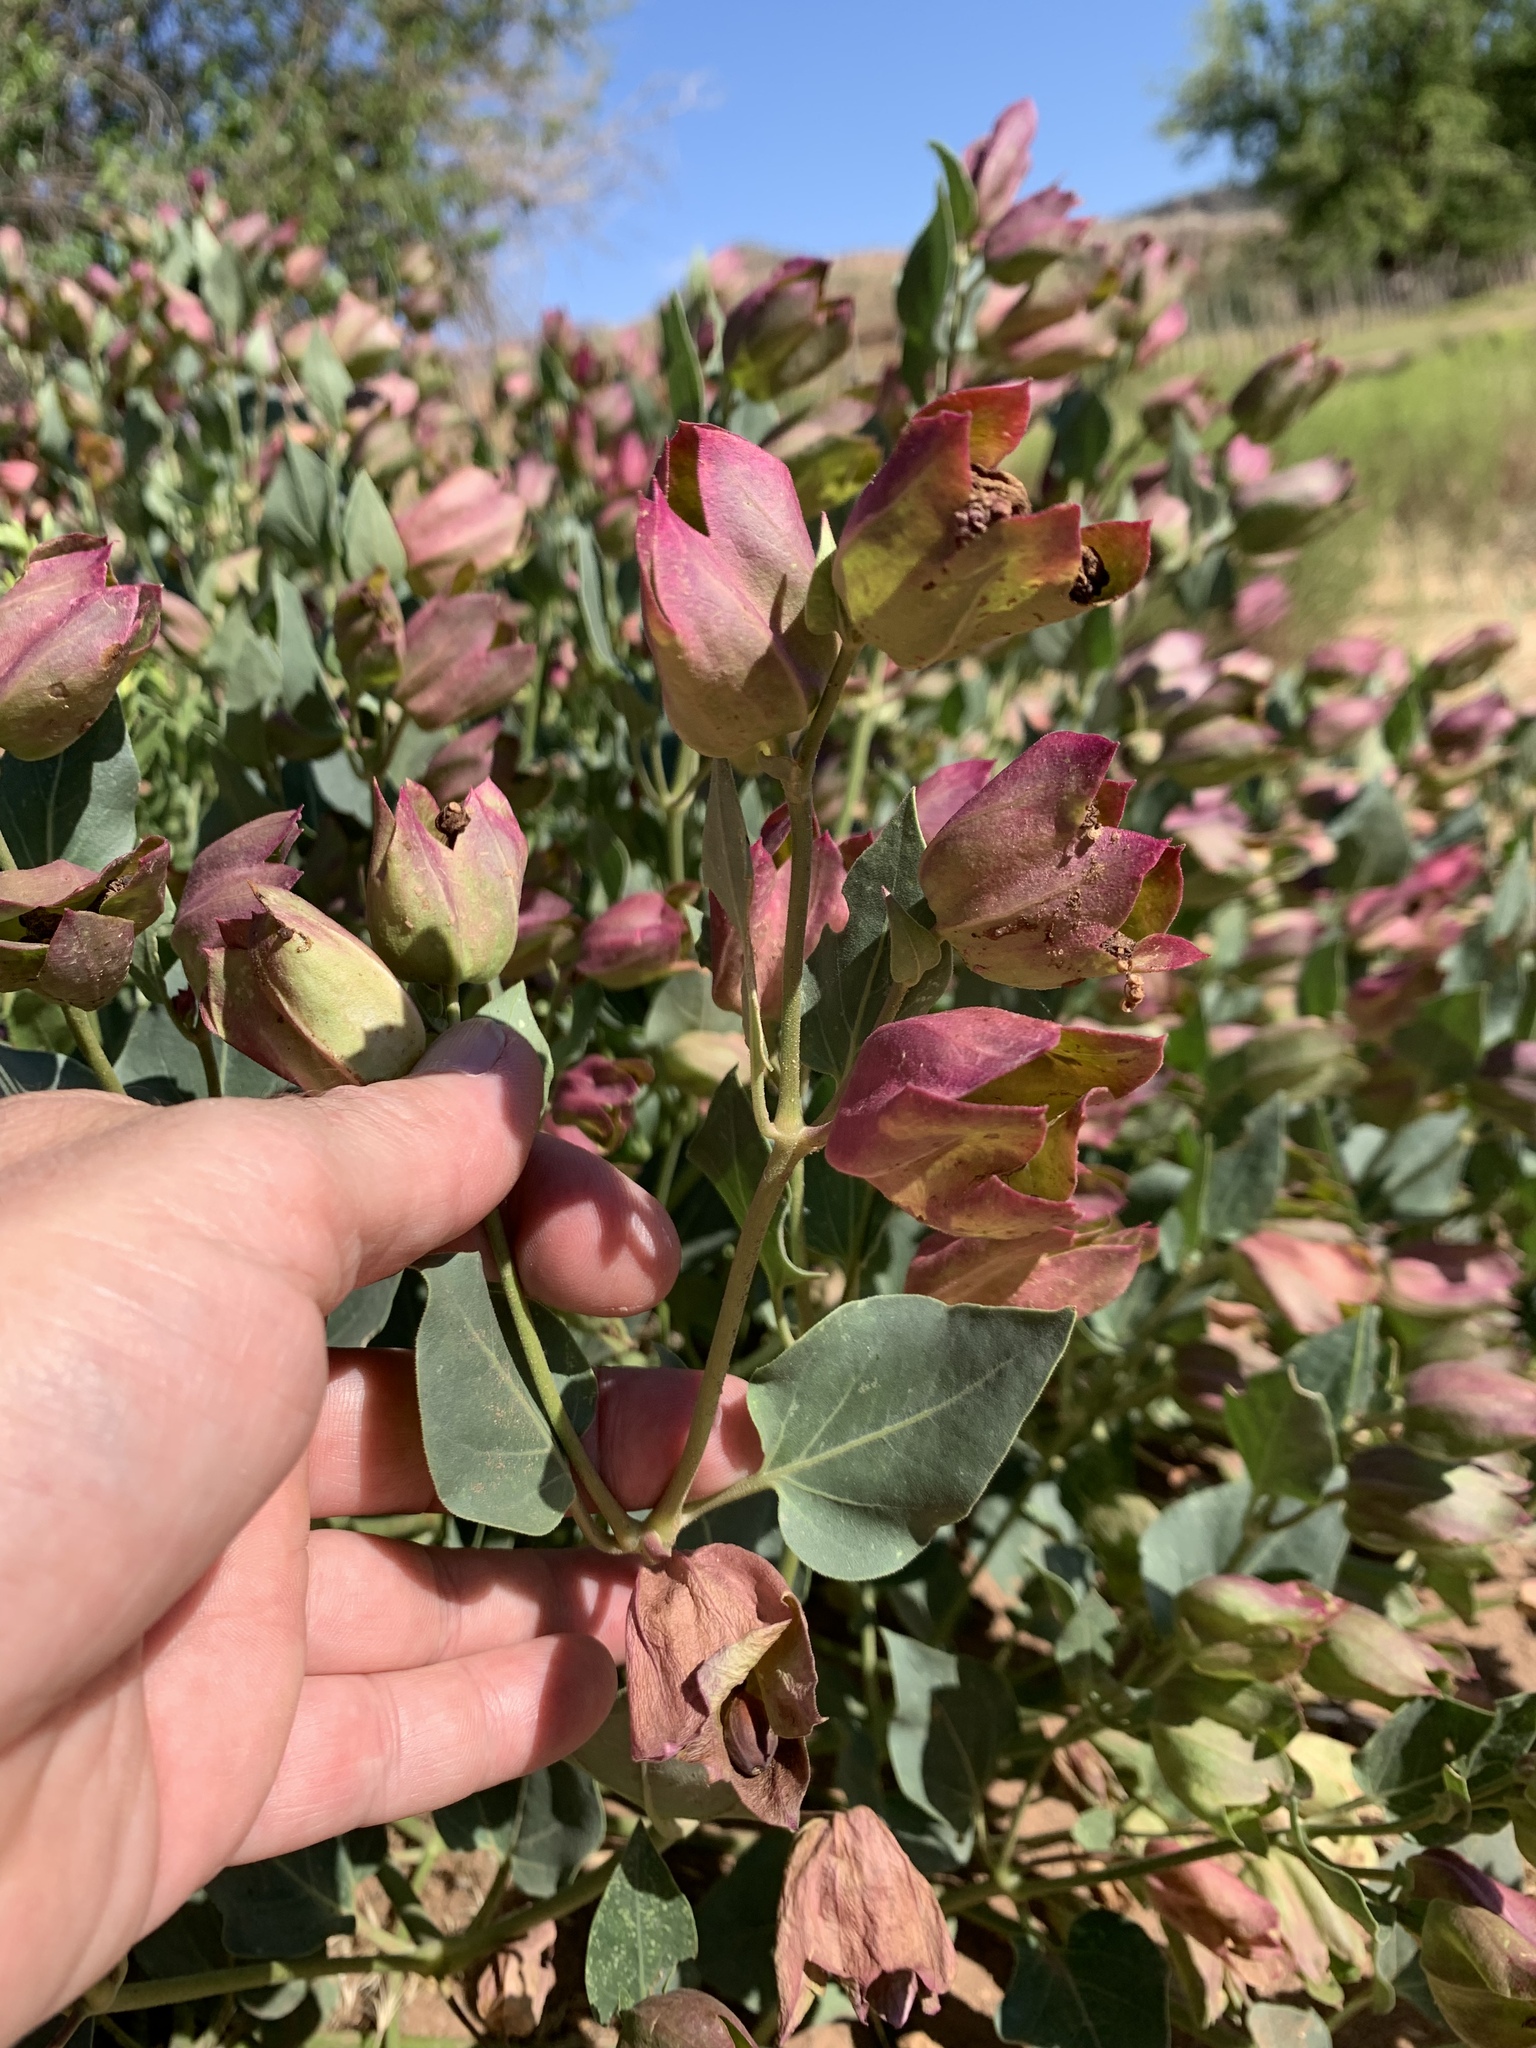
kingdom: Plantae
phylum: Tracheophyta
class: Magnoliopsida
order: Caryophyllales
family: Nyctaginaceae
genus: Mirabilis
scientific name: Mirabilis multiflora
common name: Froebel's four-o'clock
